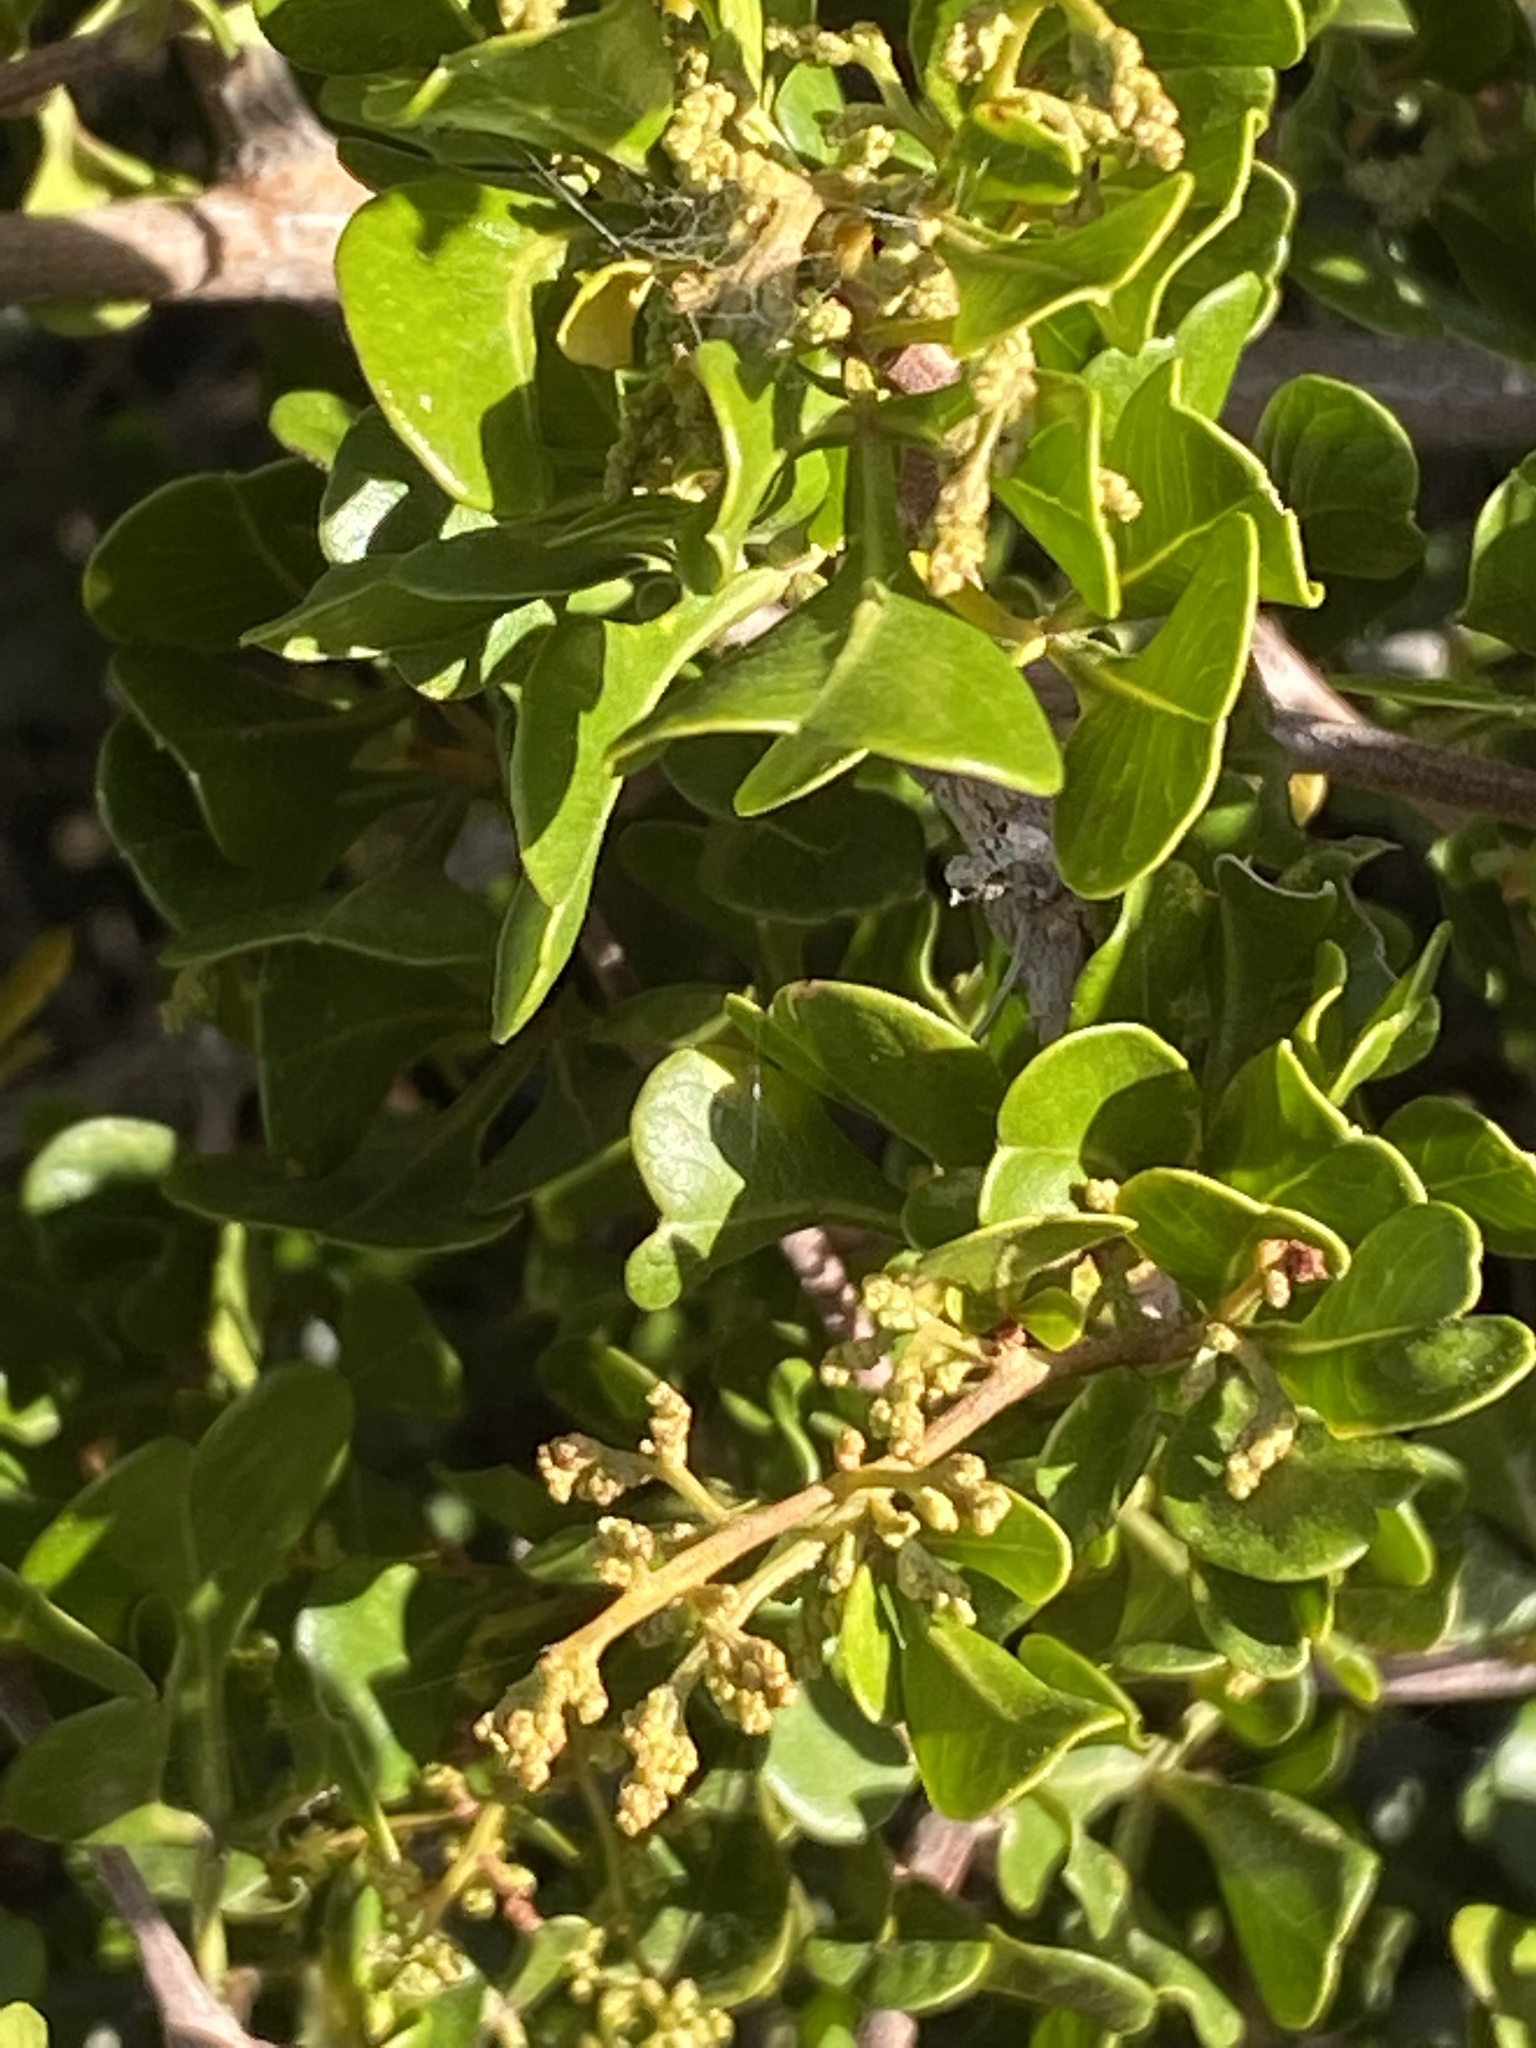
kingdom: Plantae
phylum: Tracheophyta
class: Magnoliopsida
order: Sapindales
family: Anacardiaceae
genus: Searsia
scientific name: Searsia glauca
